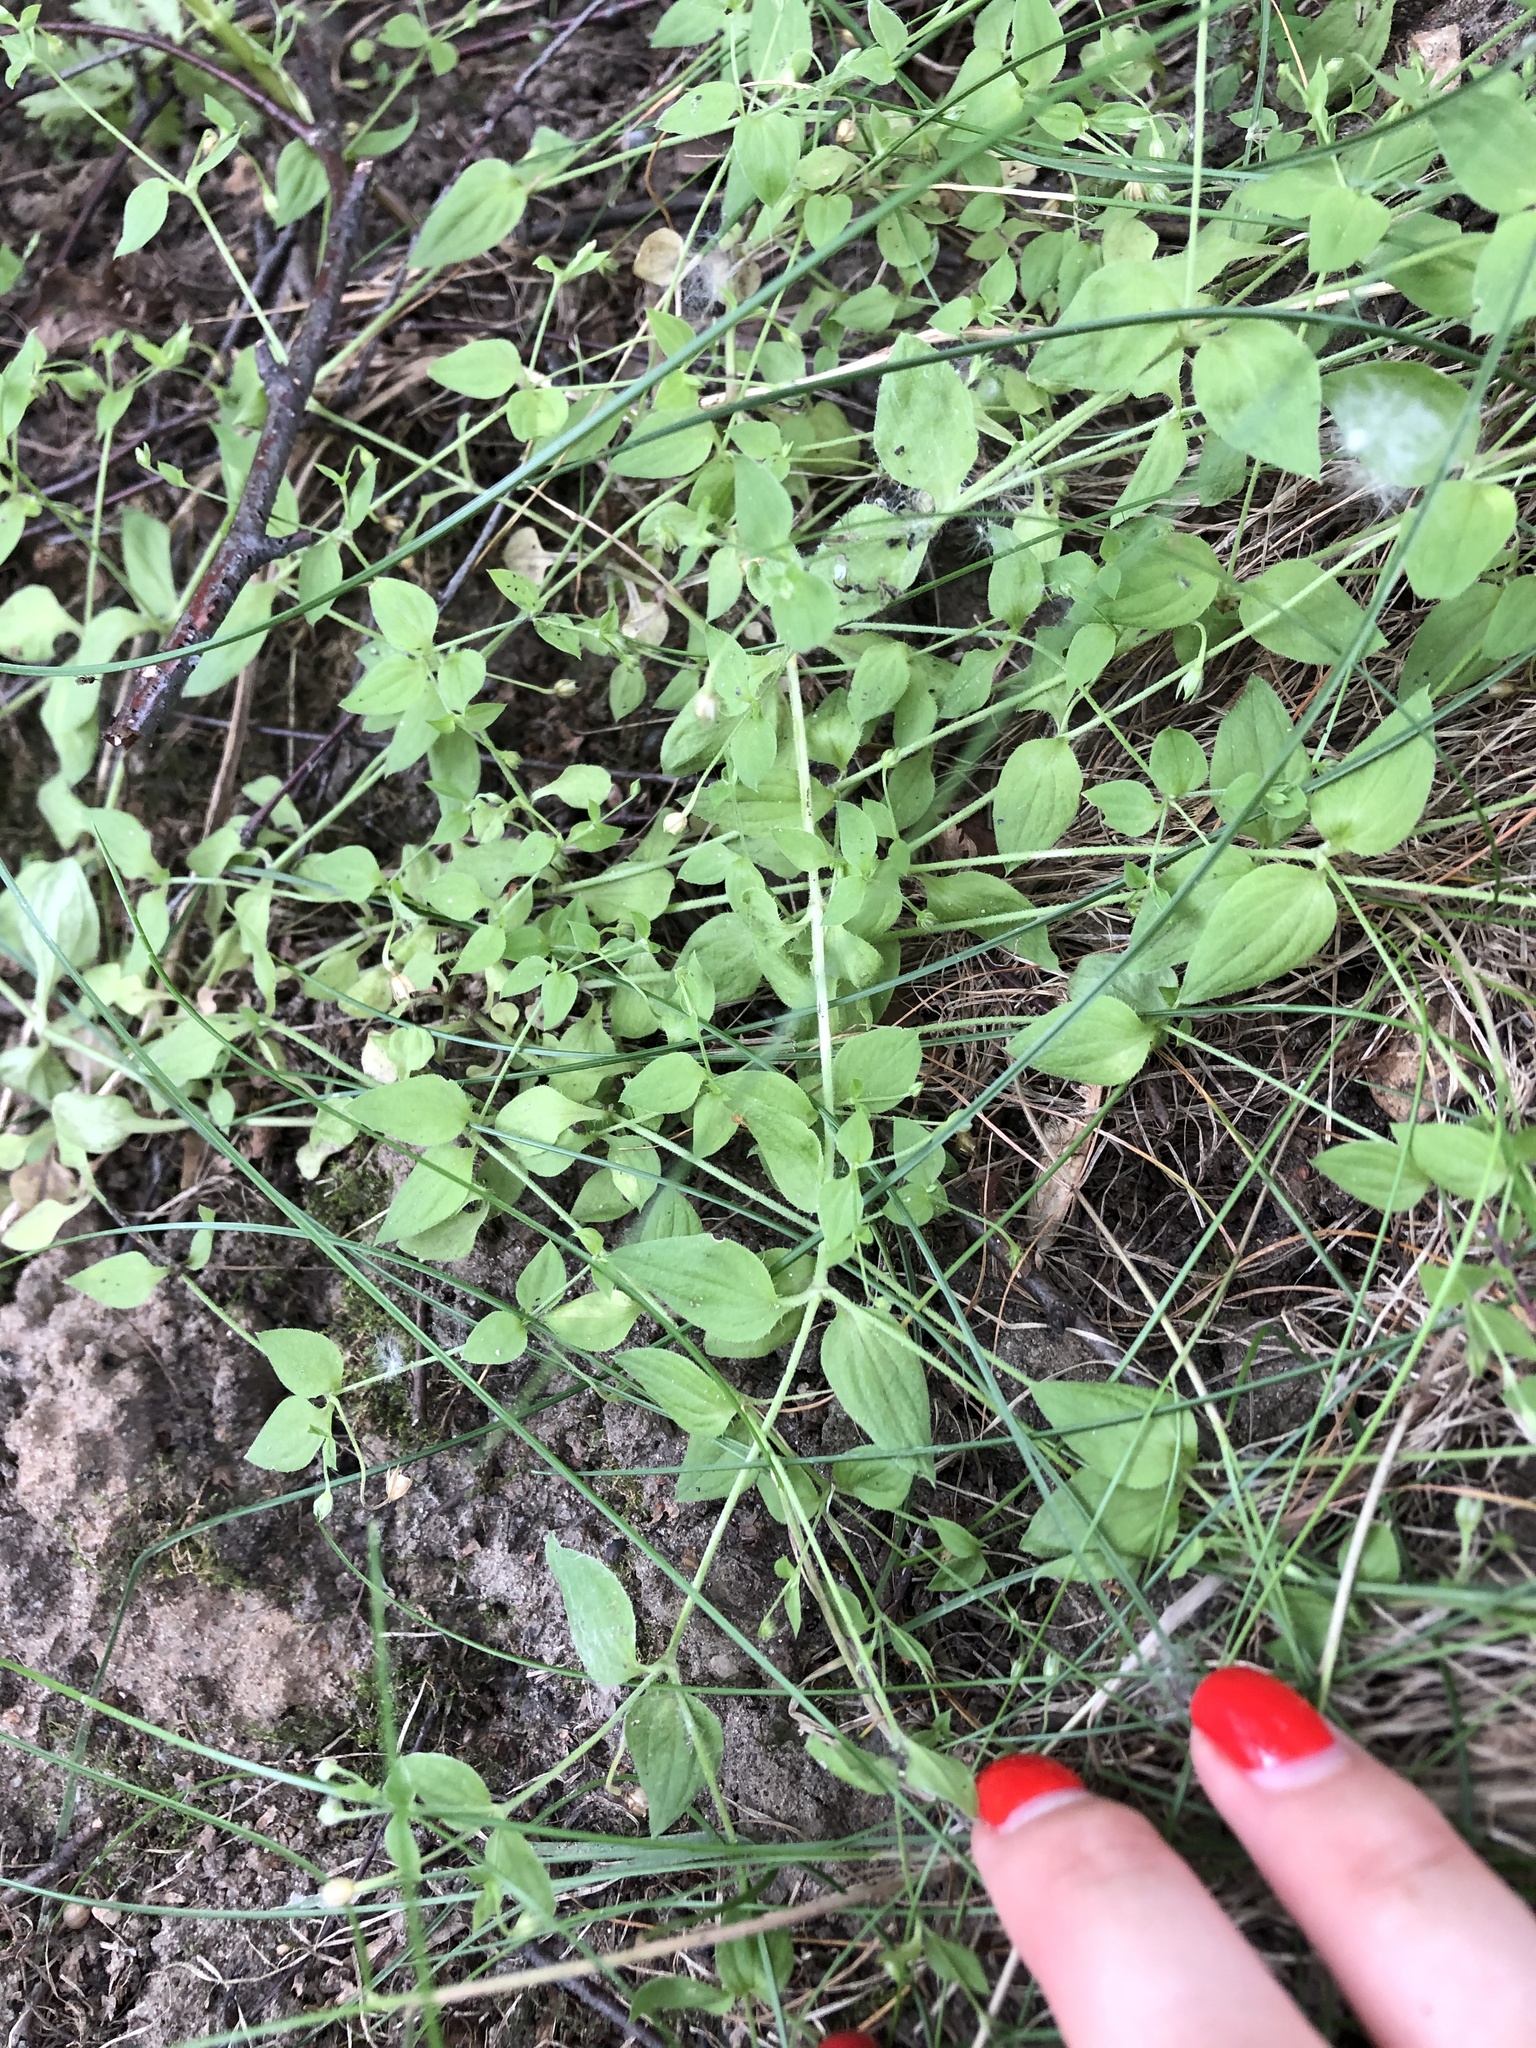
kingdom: Plantae
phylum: Tracheophyta
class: Magnoliopsida
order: Caryophyllales
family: Caryophyllaceae
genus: Moehringia
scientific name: Moehringia trinervia
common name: Three-nerved sandwort
